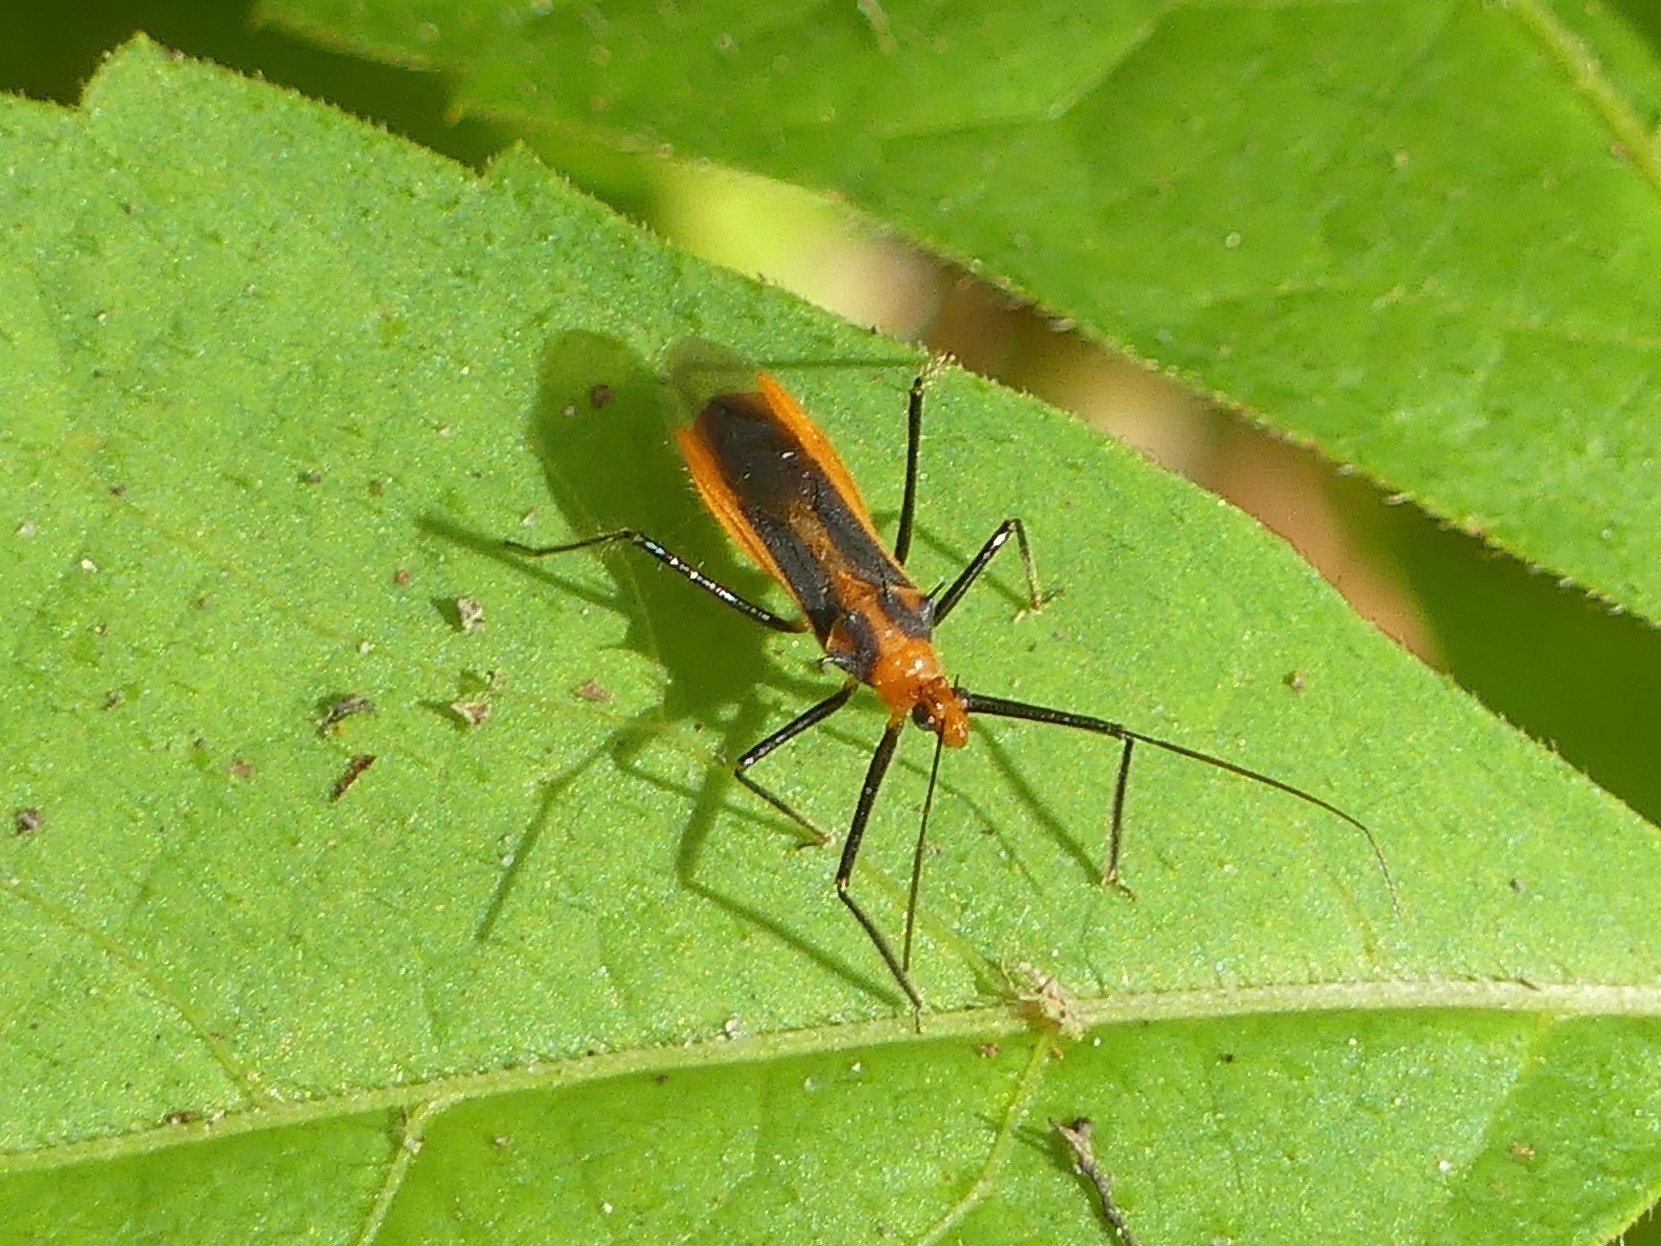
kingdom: Animalia
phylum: Arthropoda
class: Insecta
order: Hemiptera
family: Reduviidae
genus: Repipta
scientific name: Repipta taurus
